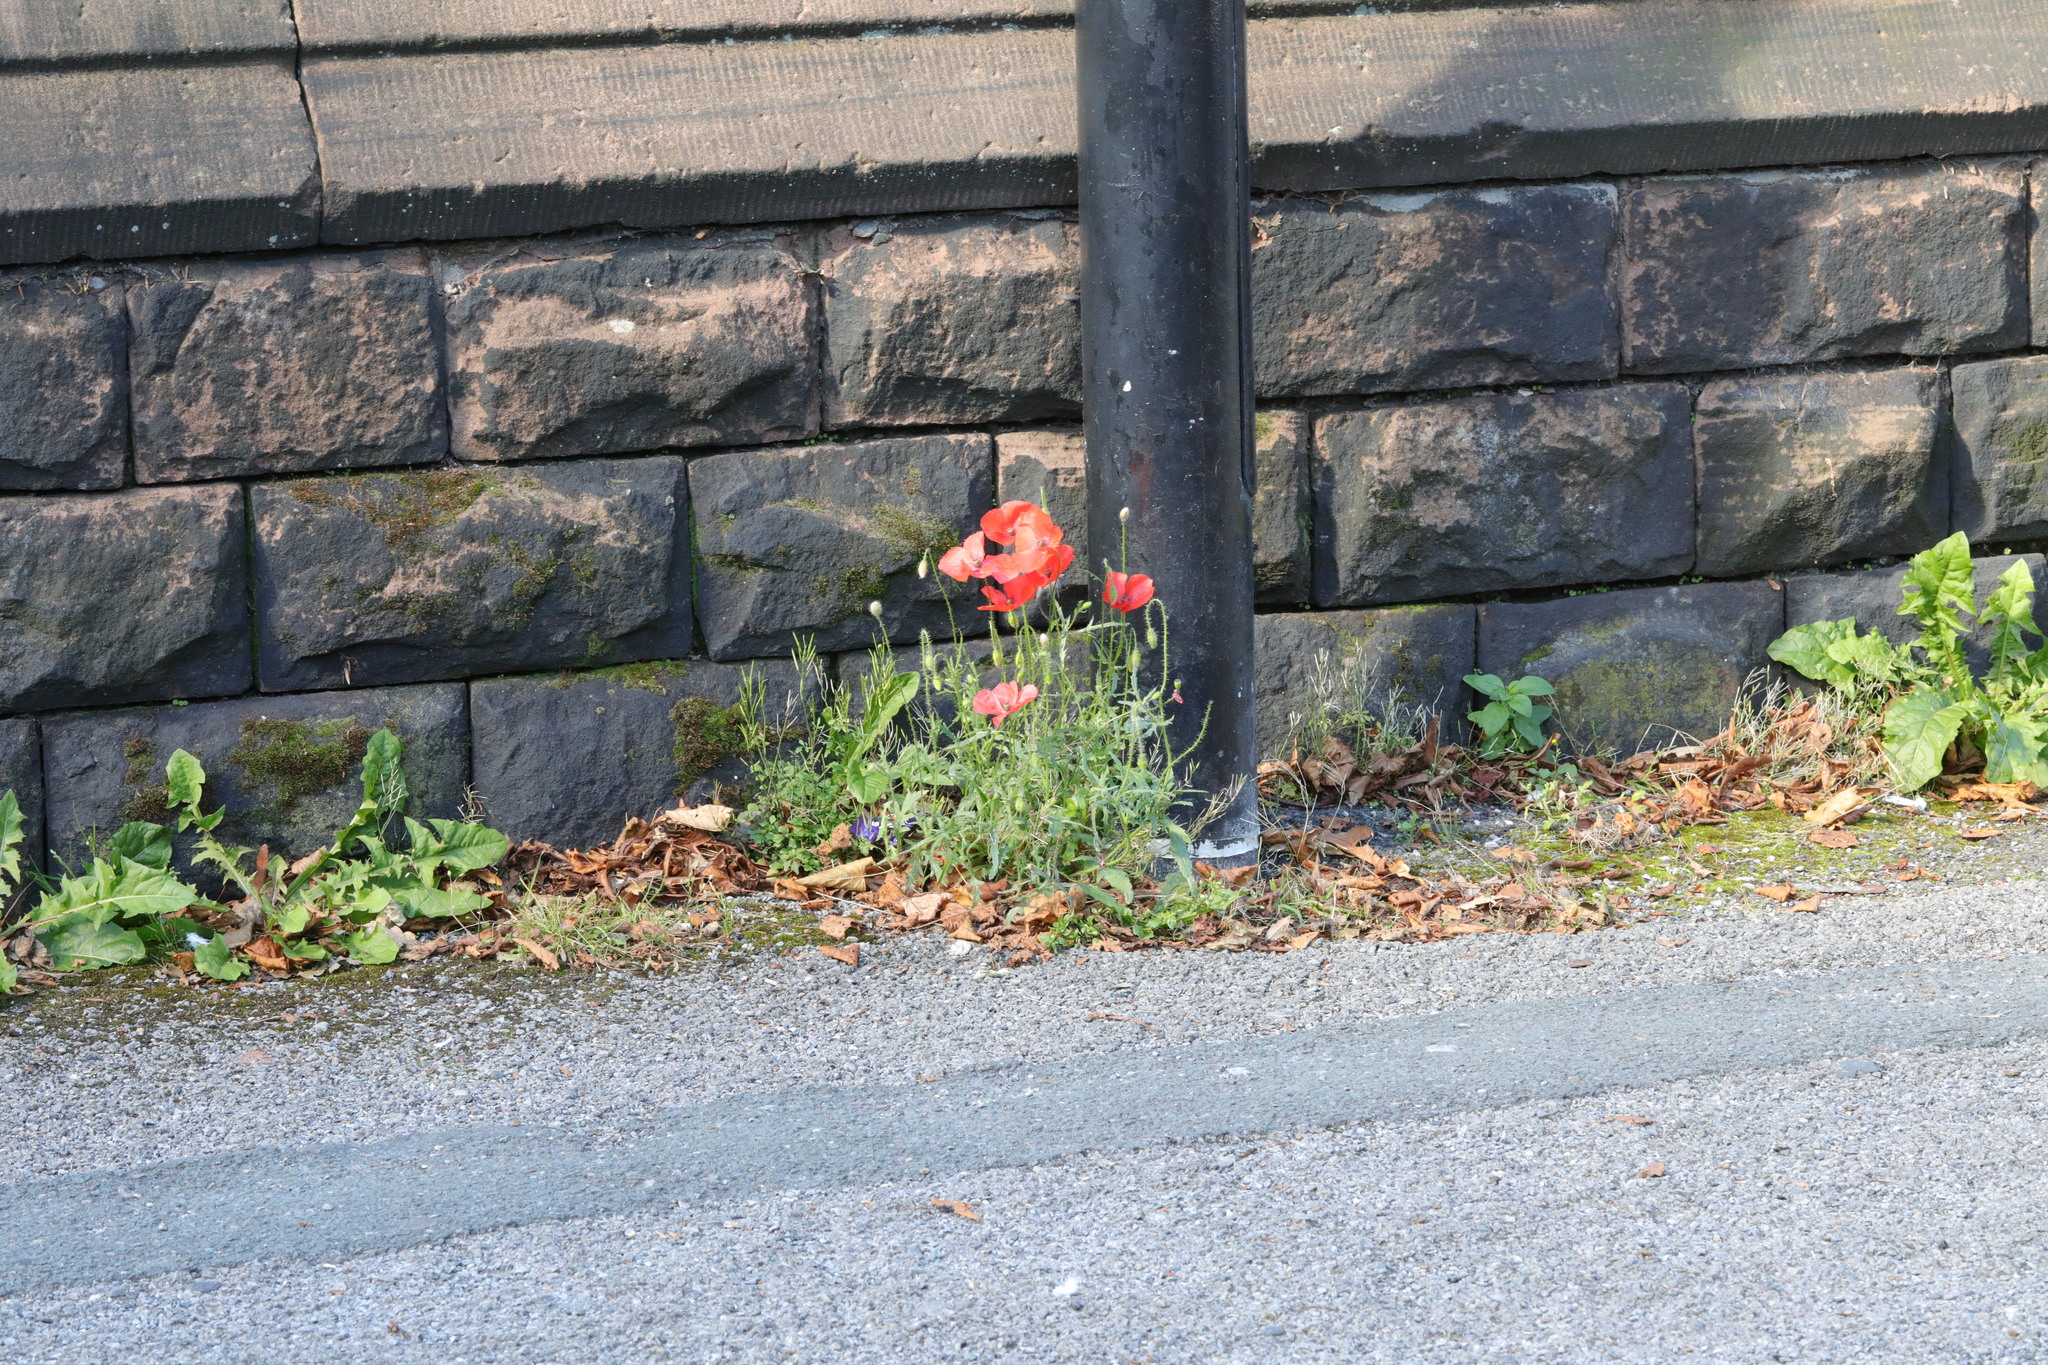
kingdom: Plantae
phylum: Tracheophyta
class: Magnoliopsida
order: Ranunculales
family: Papaveraceae
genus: Papaver
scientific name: Papaver rhoeas
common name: Corn poppy
